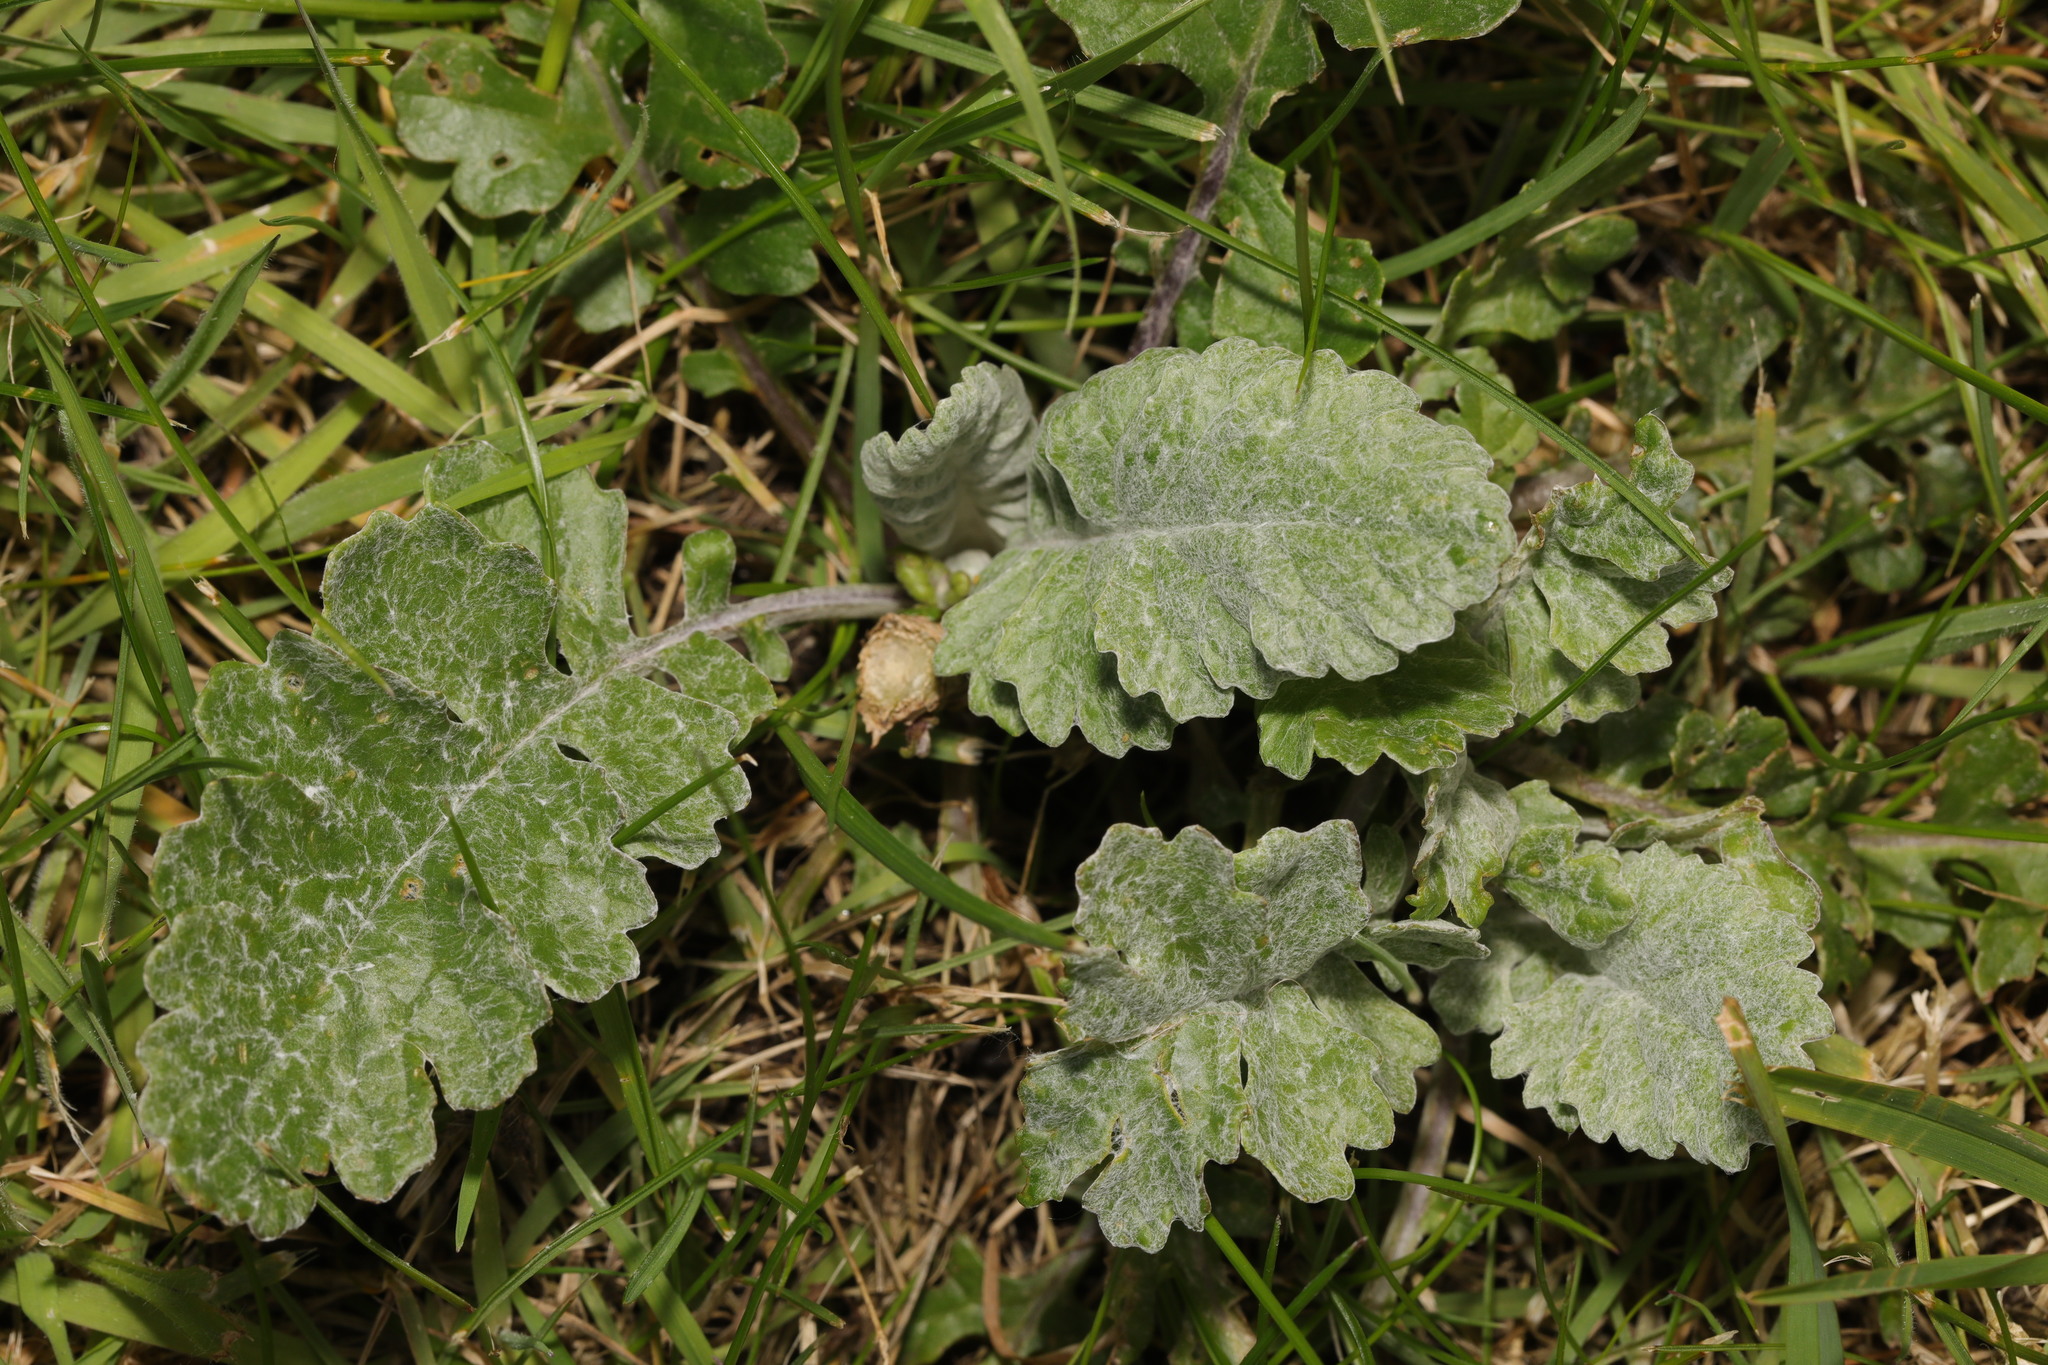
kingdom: Plantae
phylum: Tracheophyta
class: Magnoliopsida
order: Asterales
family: Asteraceae
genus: Jacobaea
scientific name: Jacobaea albescens
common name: Hybrid ragwort
